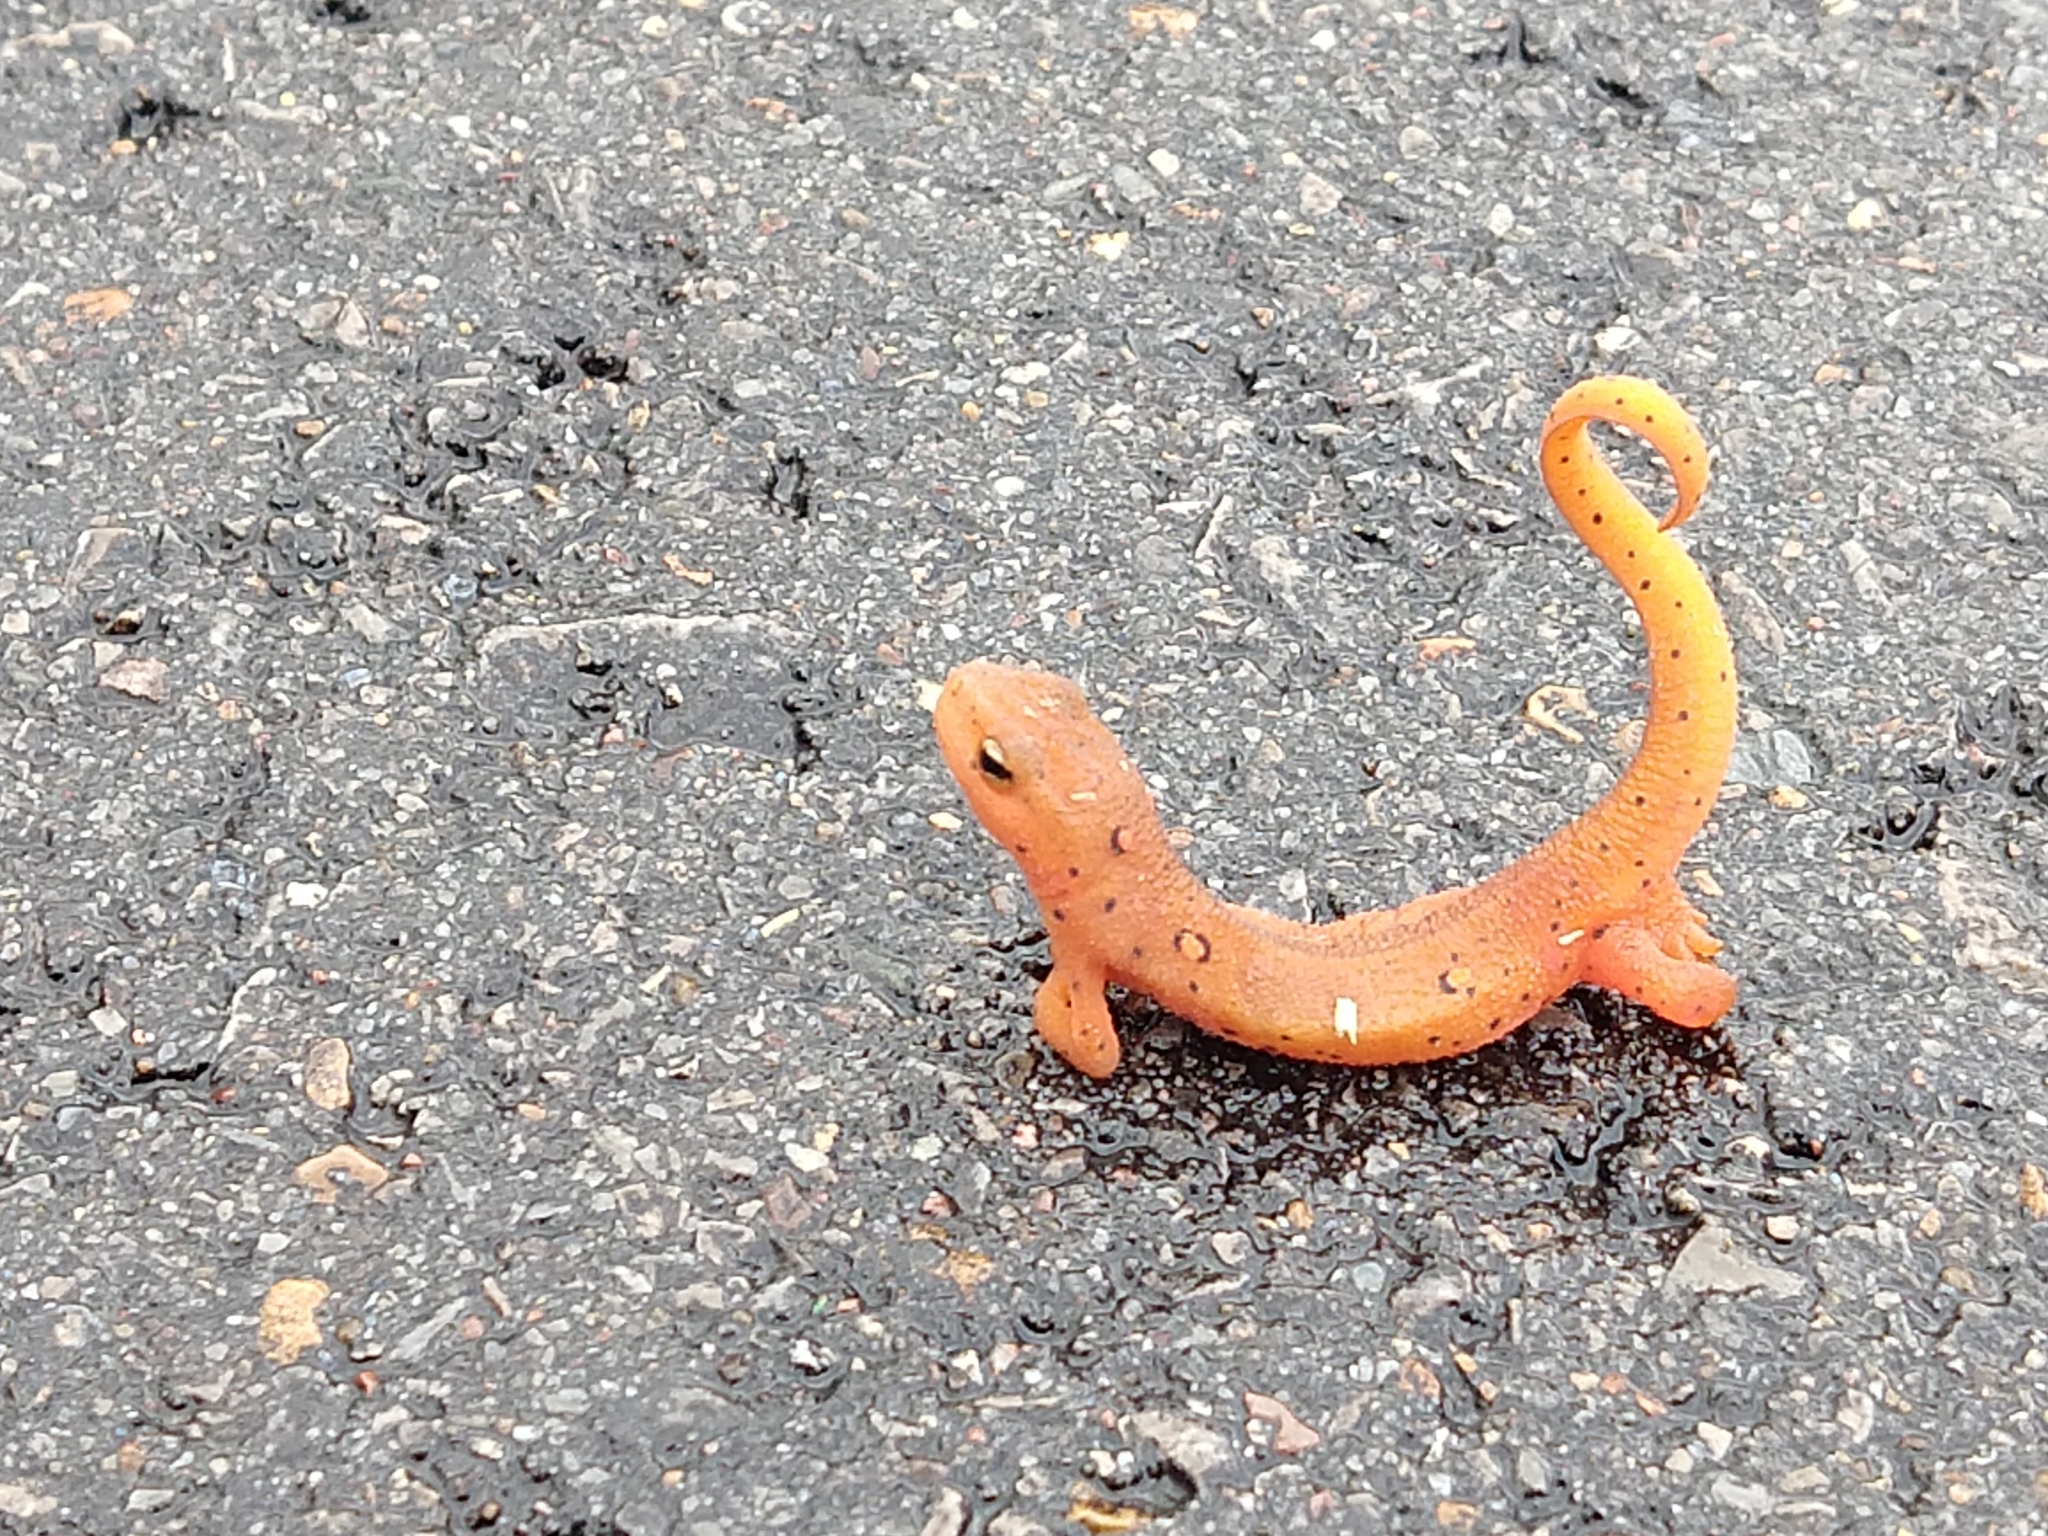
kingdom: Animalia
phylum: Chordata
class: Amphibia
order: Caudata
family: Salamandridae
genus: Notophthalmus
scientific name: Notophthalmus viridescens
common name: Eastern newt
